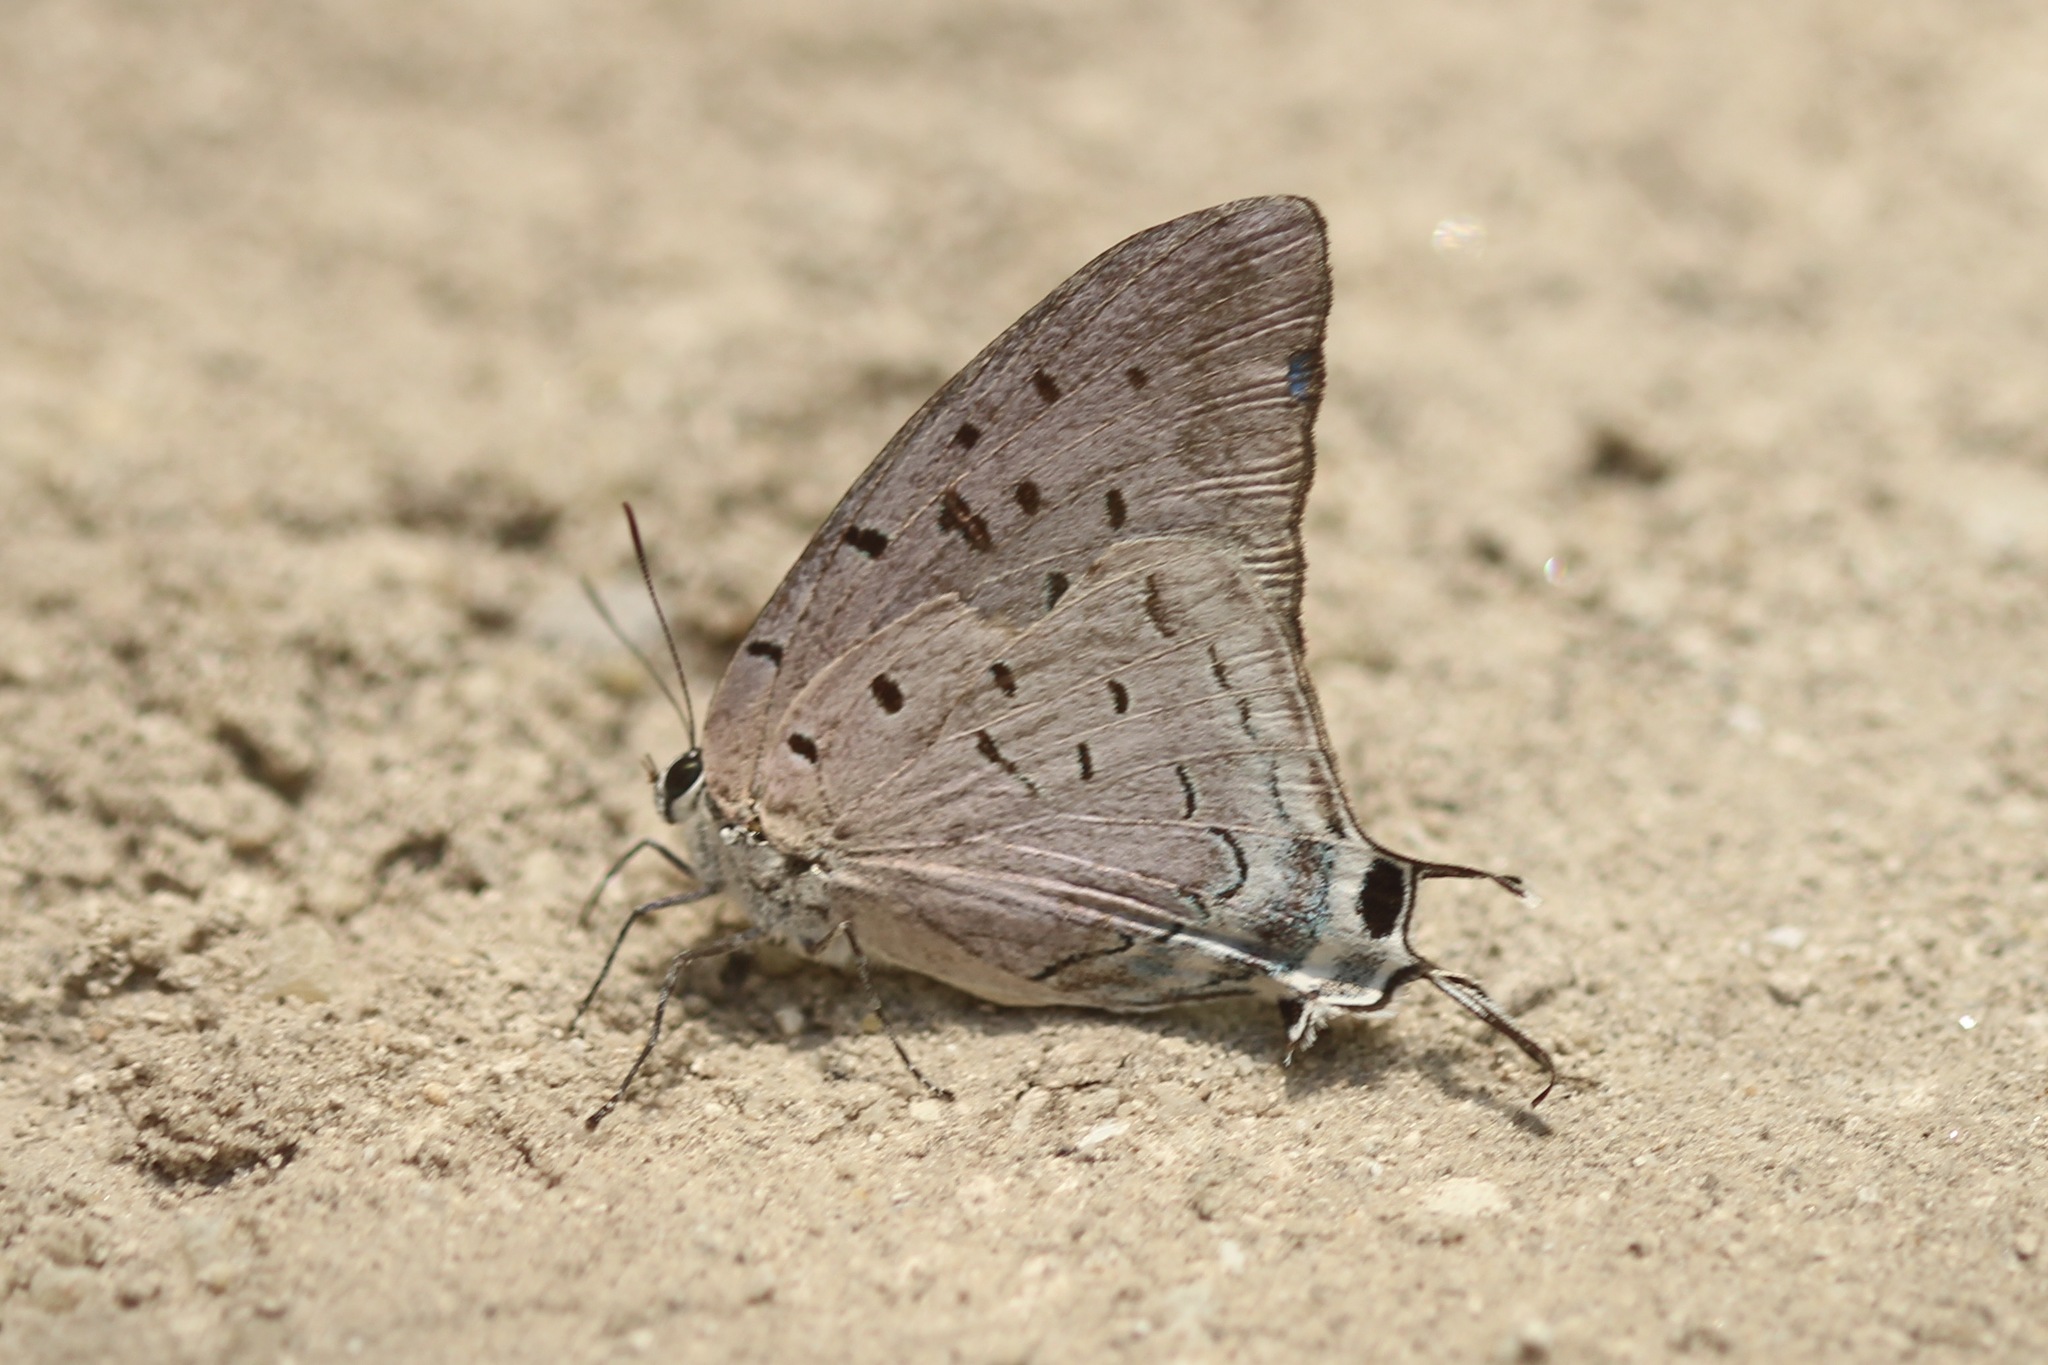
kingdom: Animalia
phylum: Arthropoda
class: Insecta
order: Lepidoptera
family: Lycaenidae
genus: Pseudolycaena
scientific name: Pseudolycaena damo
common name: Sky-blue hairstreak
